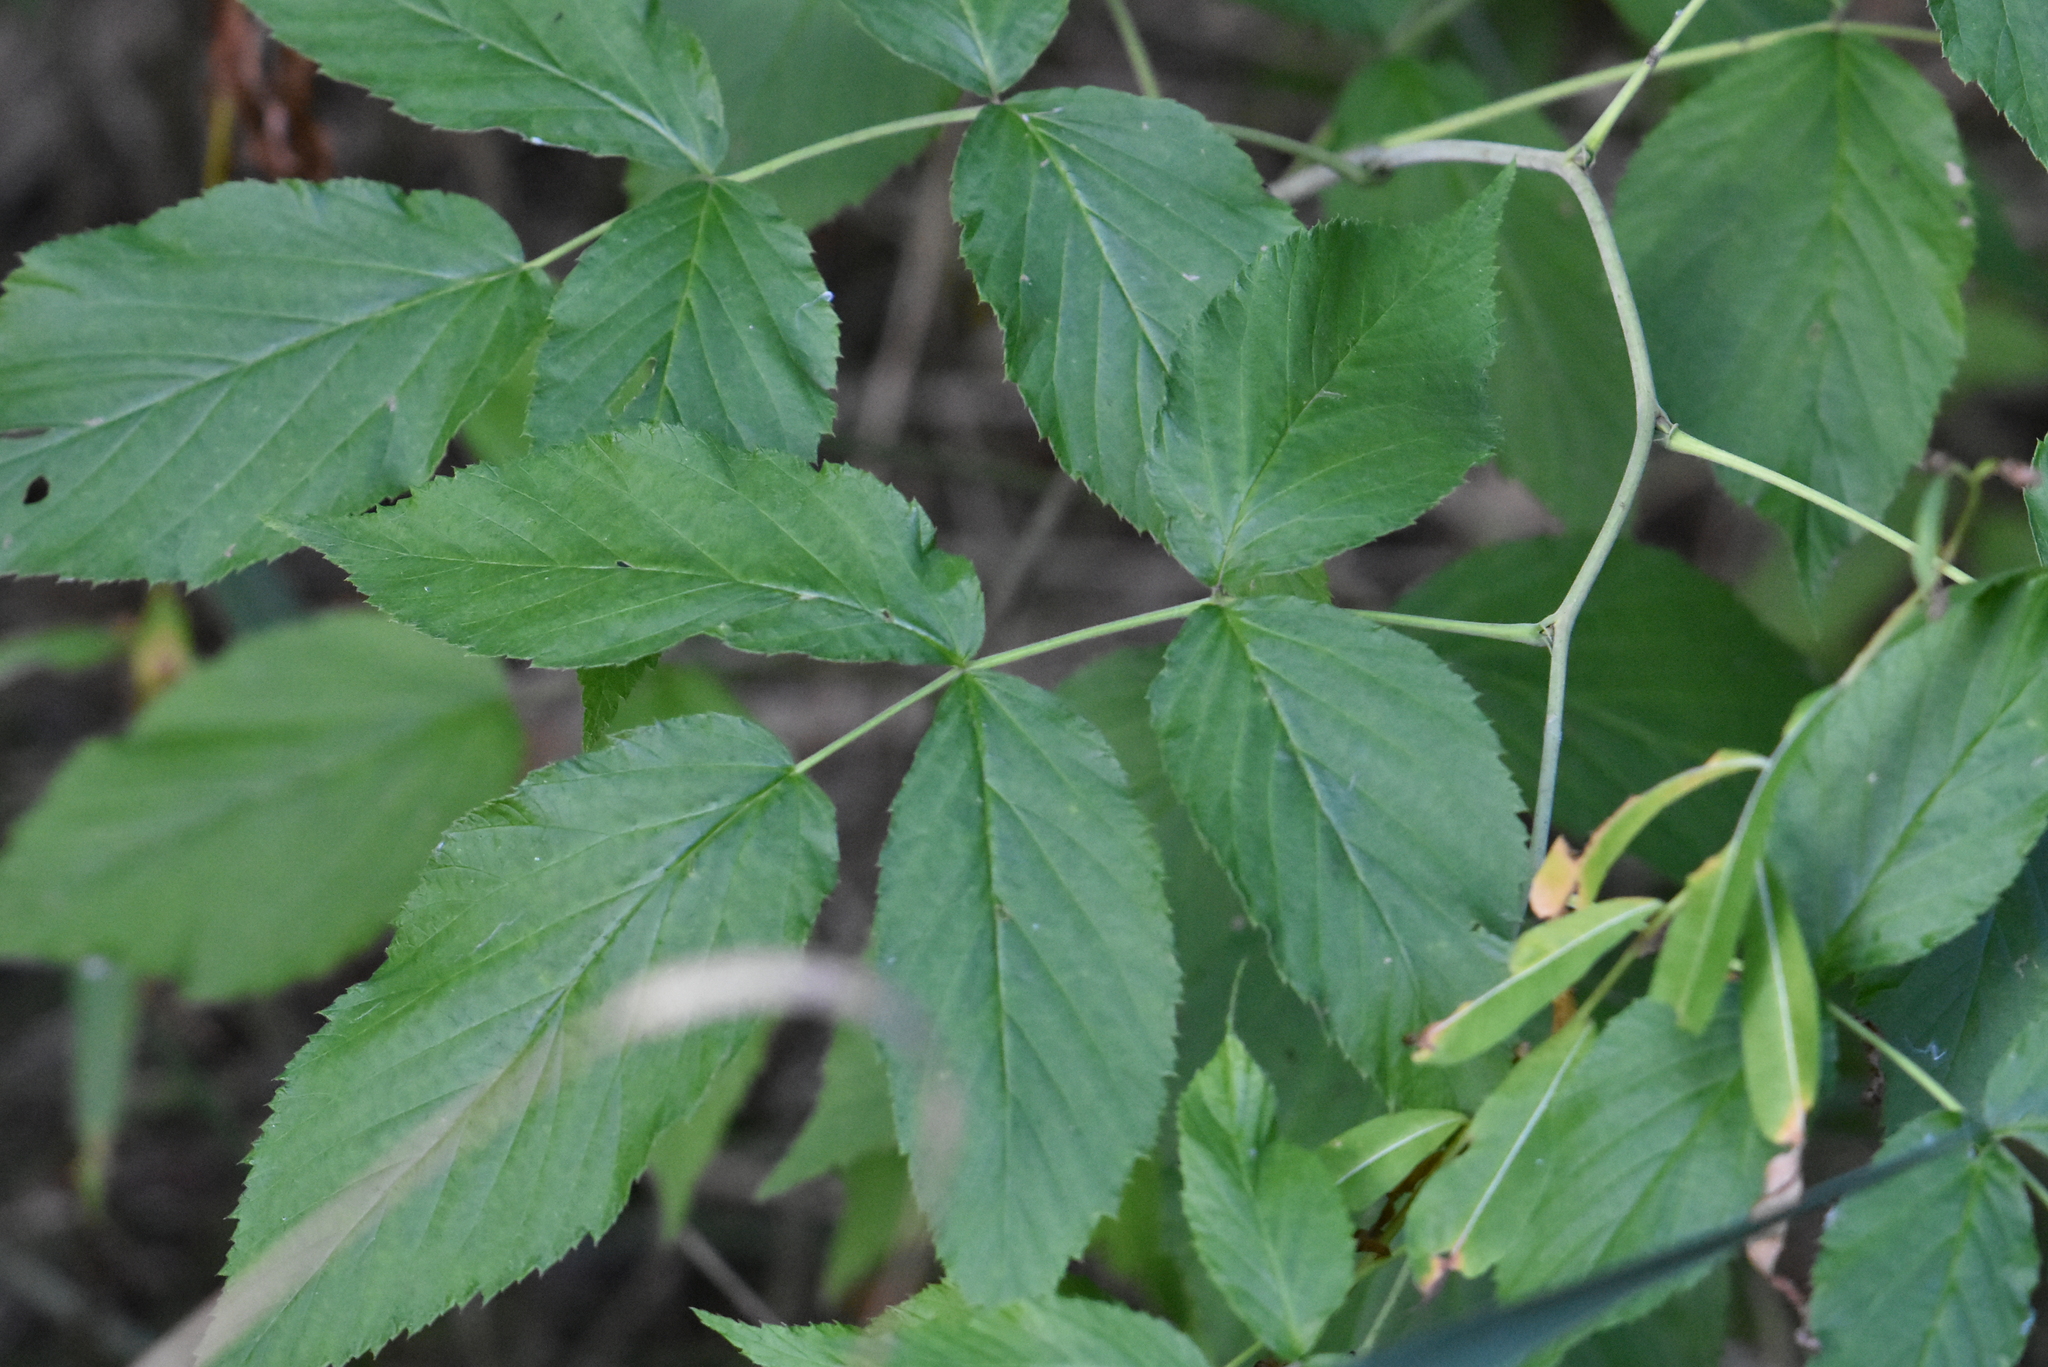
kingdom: Plantae
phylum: Tracheophyta
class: Magnoliopsida
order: Rosales
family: Rosaceae
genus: Rubus
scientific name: Rubus idaeus
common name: Raspberry
